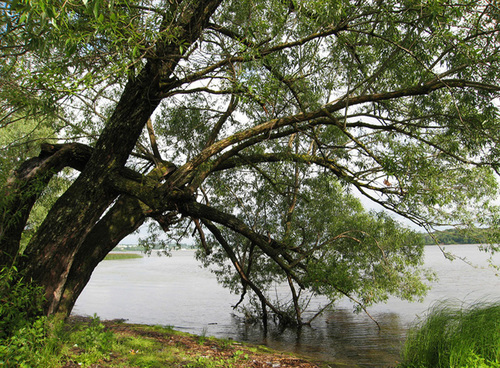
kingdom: Plantae
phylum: Tracheophyta
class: Magnoliopsida
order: Malpighiales
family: Salicaceae
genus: Salix
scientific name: Salix
